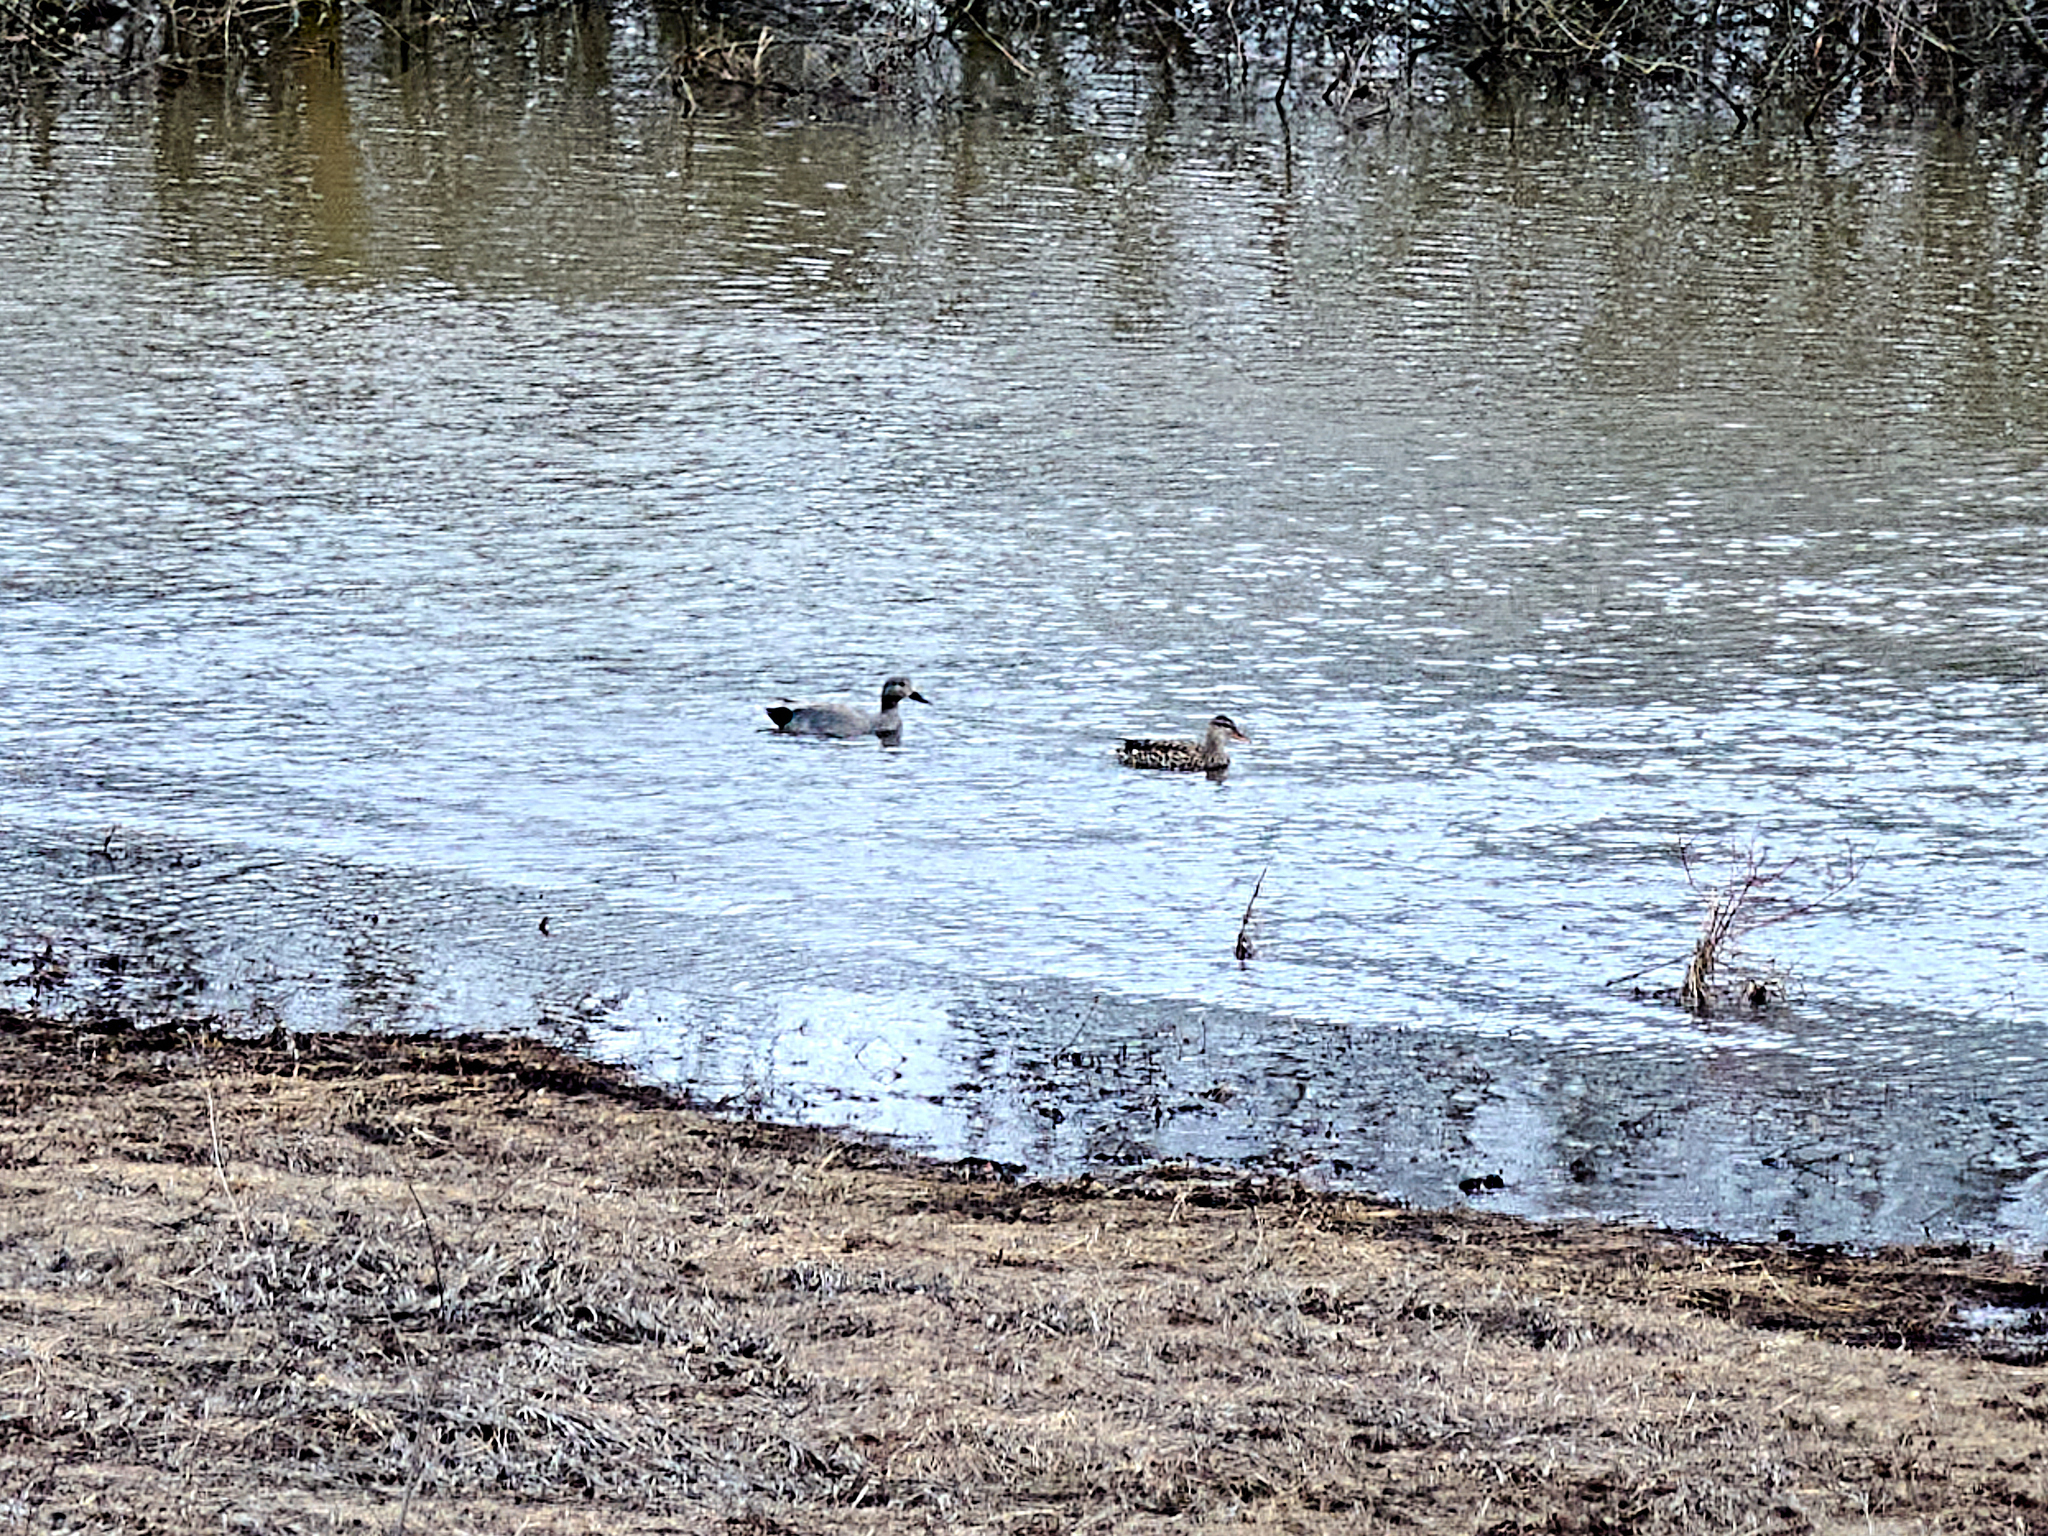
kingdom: Animalia
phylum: Chordata
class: Aves
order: Anseriformes
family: Anatidae
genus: Mareca
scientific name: Mareca strepera
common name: Gadwall
